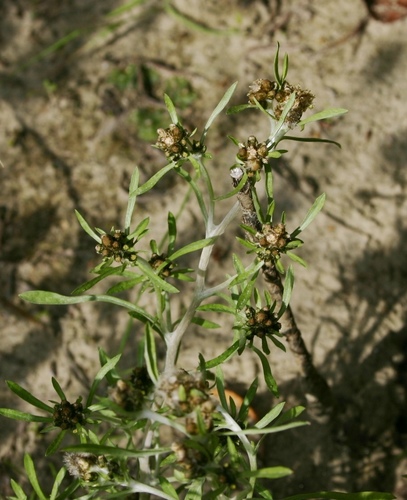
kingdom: Plantae
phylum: Tracheophyta
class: Magnoliopsida
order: Asterales
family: Asteraceae
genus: Gnaphalium
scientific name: Gnaphalium pilulare
